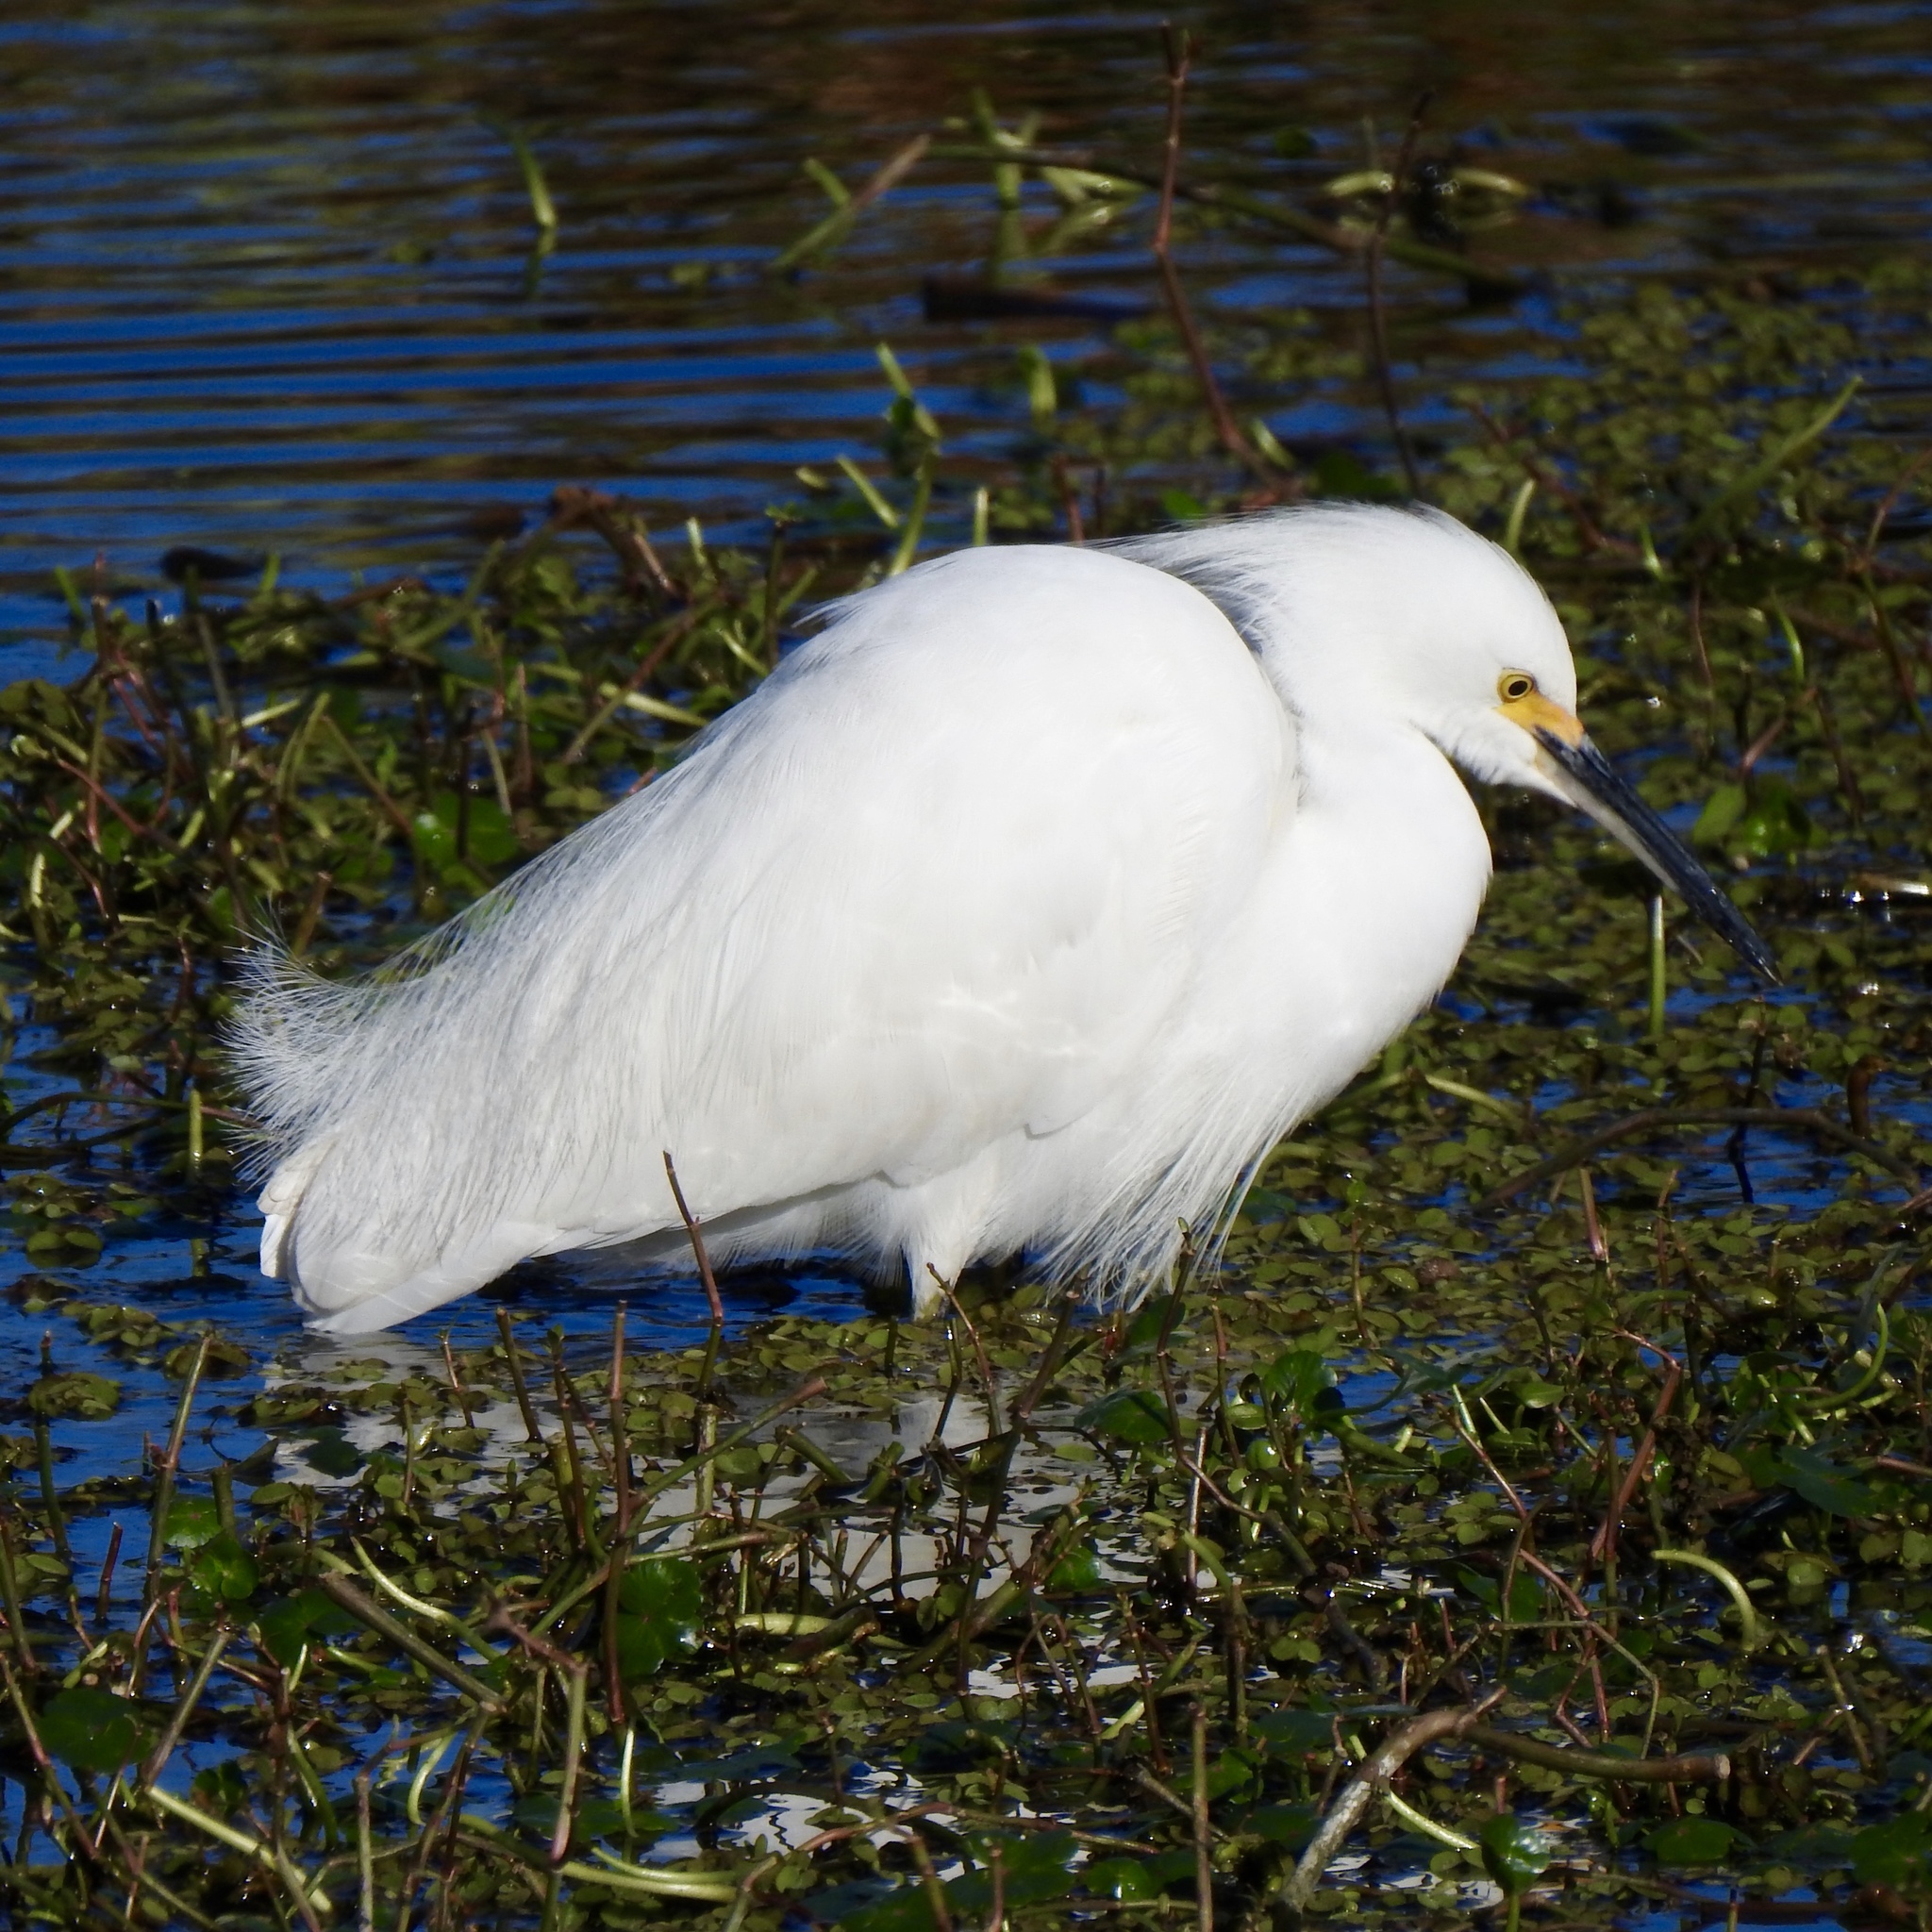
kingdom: Animalia
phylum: Chordata
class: Aves
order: Pelecaniformes
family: Ardeidae
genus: Egretta
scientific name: Egretta thula
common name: Snowy egret
